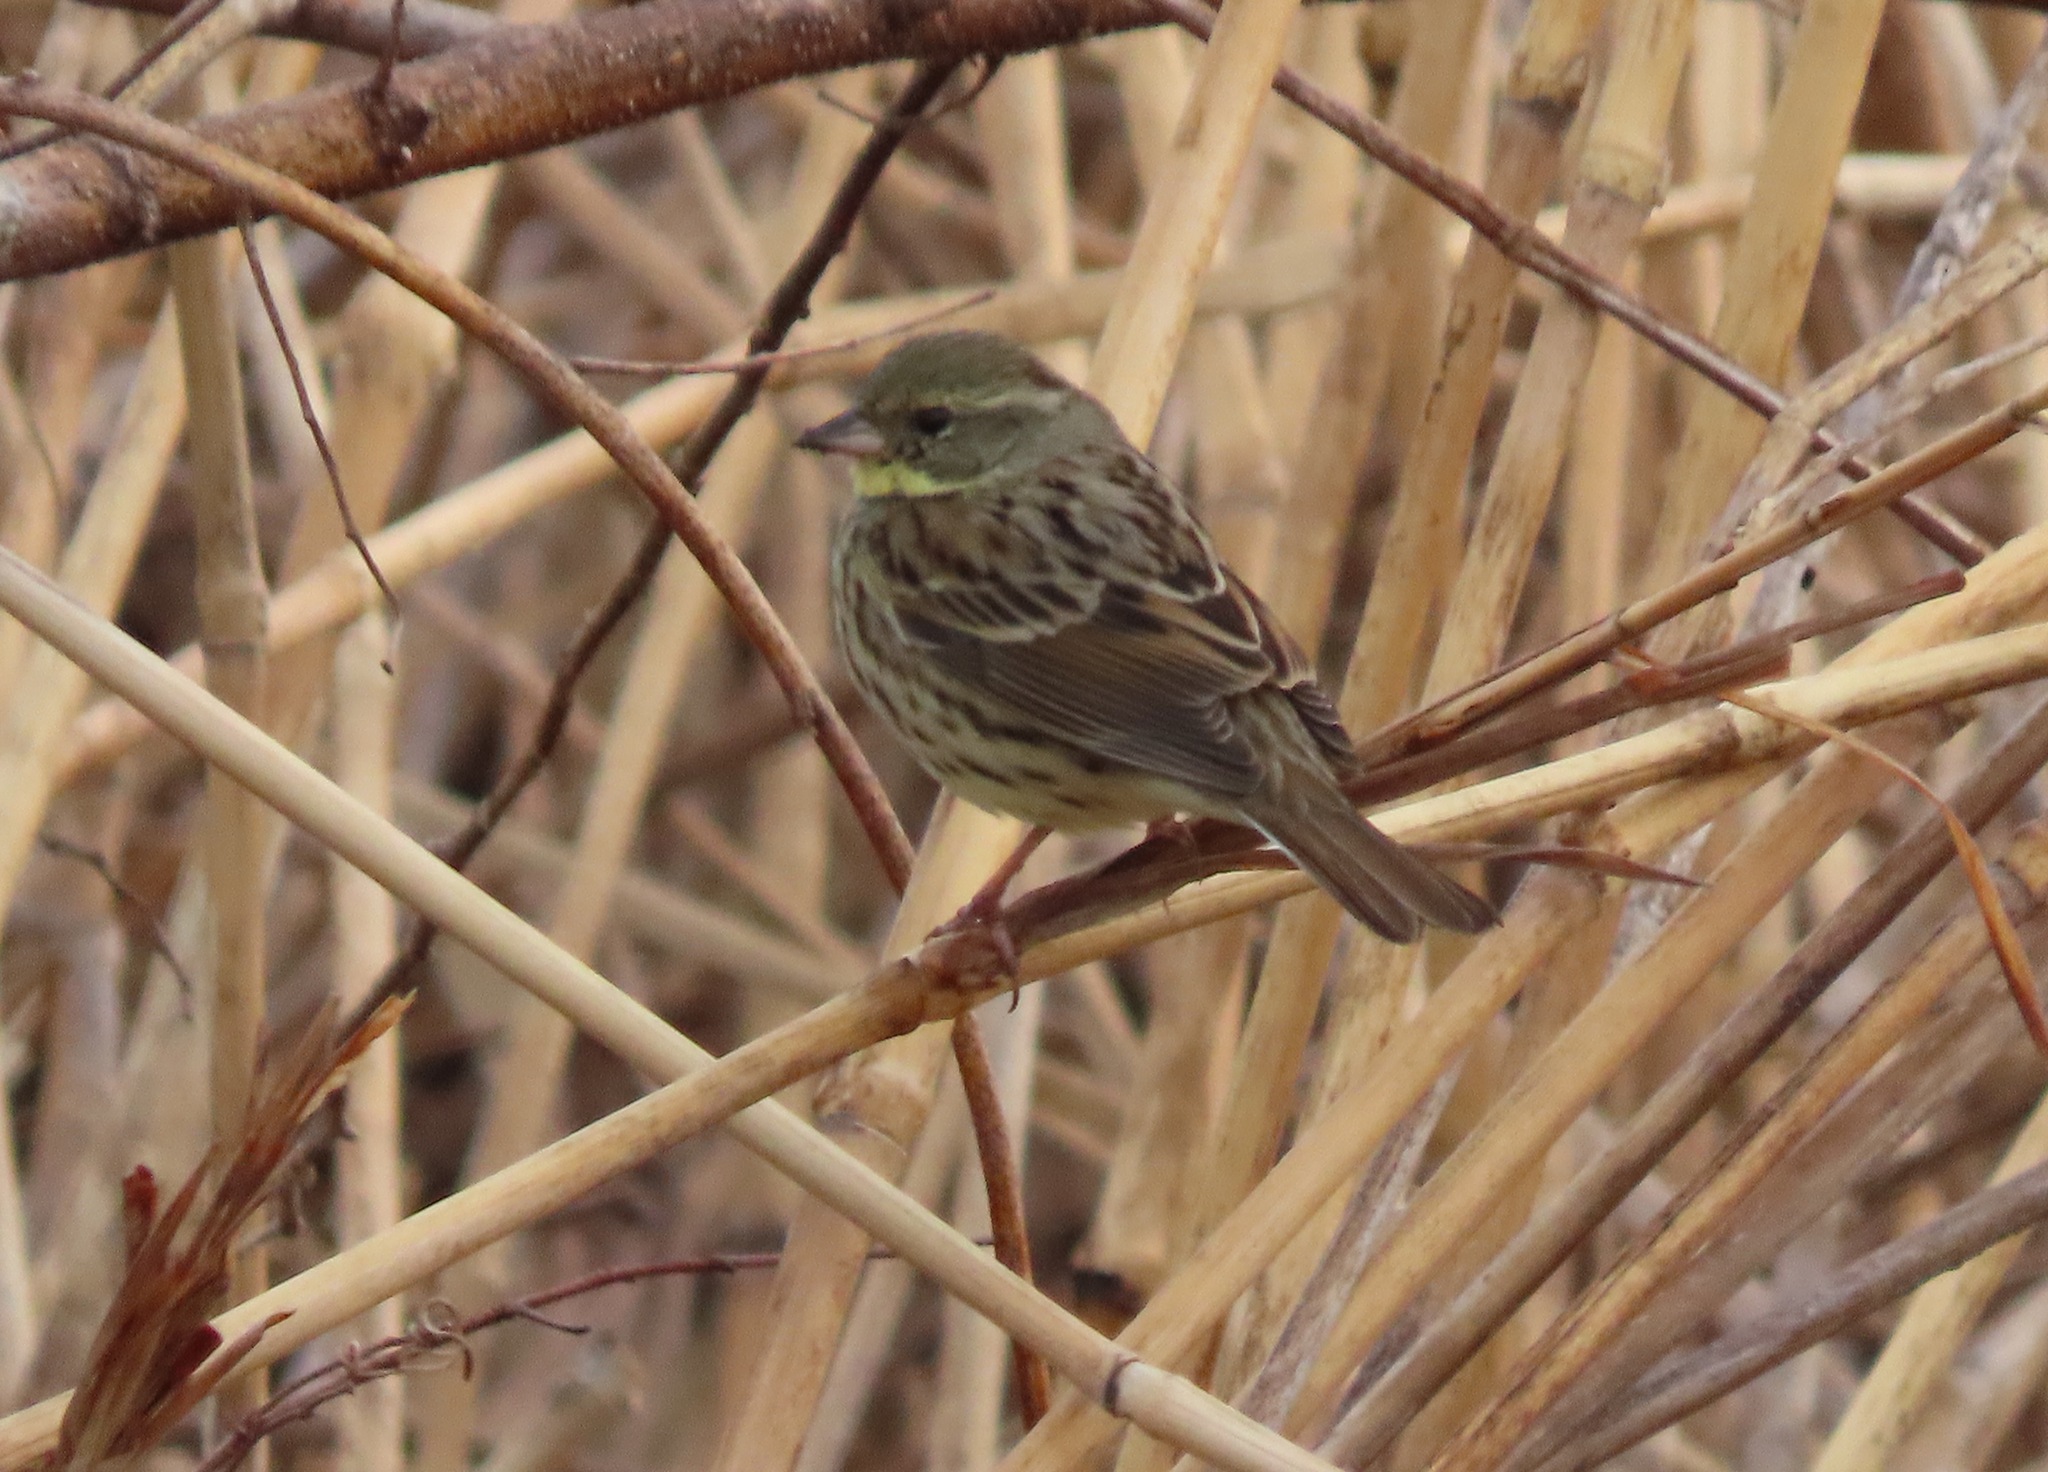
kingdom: Animalia
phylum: Chordata
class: Aves
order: Passeriformes
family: Emberizidae
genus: Emberiza
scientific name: Emberiza personata
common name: Masked bunting
